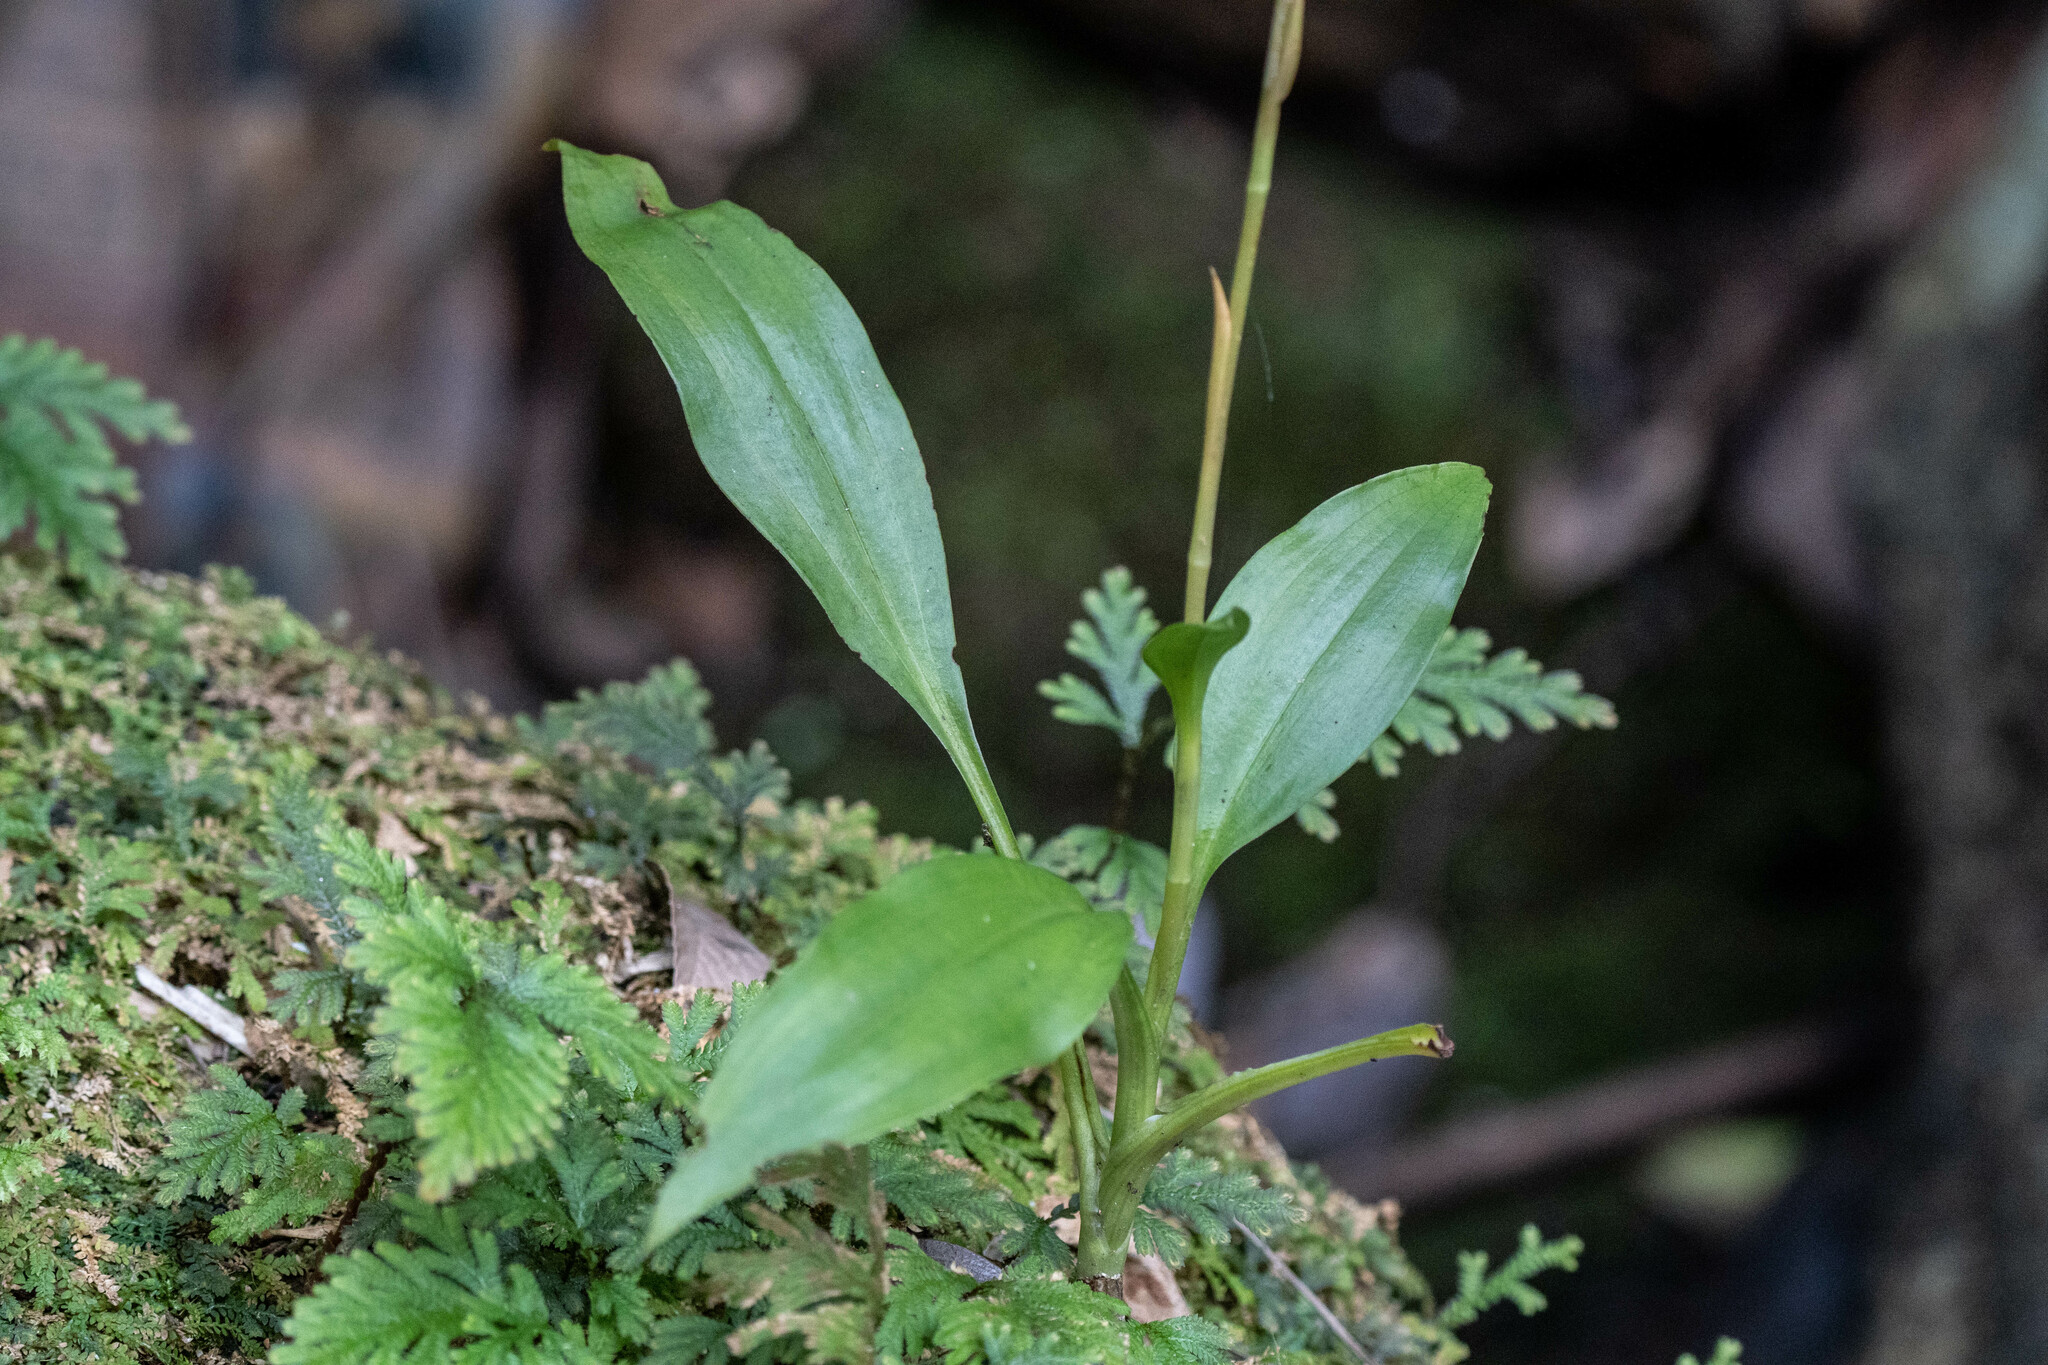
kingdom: Plantae
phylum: Tracheophyta
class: Liliopsida
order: Asparagales
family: Orchidaceae
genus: Goodyera
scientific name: Goodyera procera
